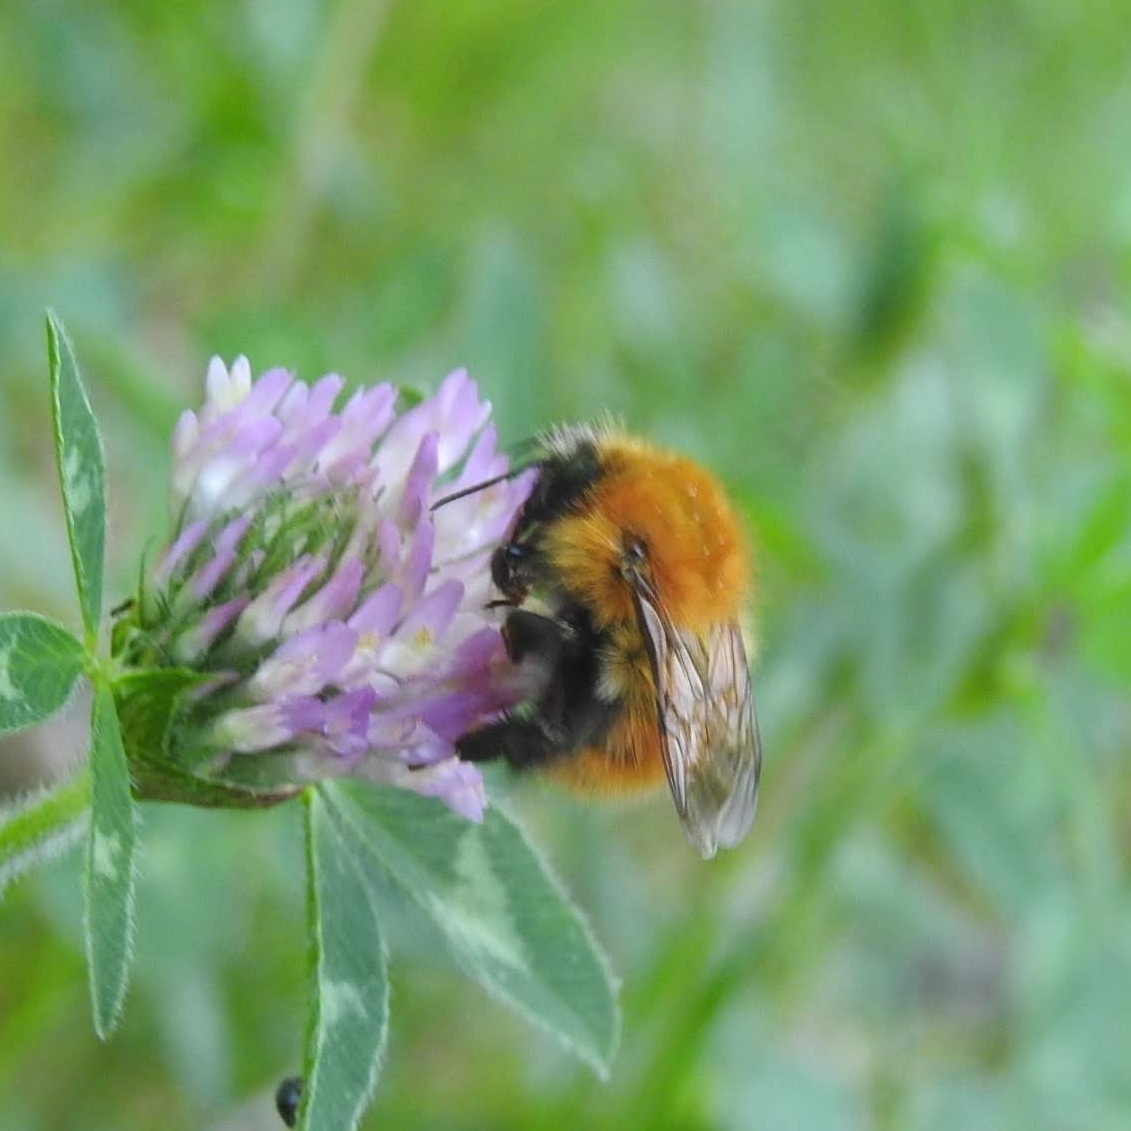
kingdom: Animalia
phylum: Arthropoda
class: Insecta
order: Hymenoptera
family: Apidae
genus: Bombus
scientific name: Bombus pascuorum
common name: Common carder bee
